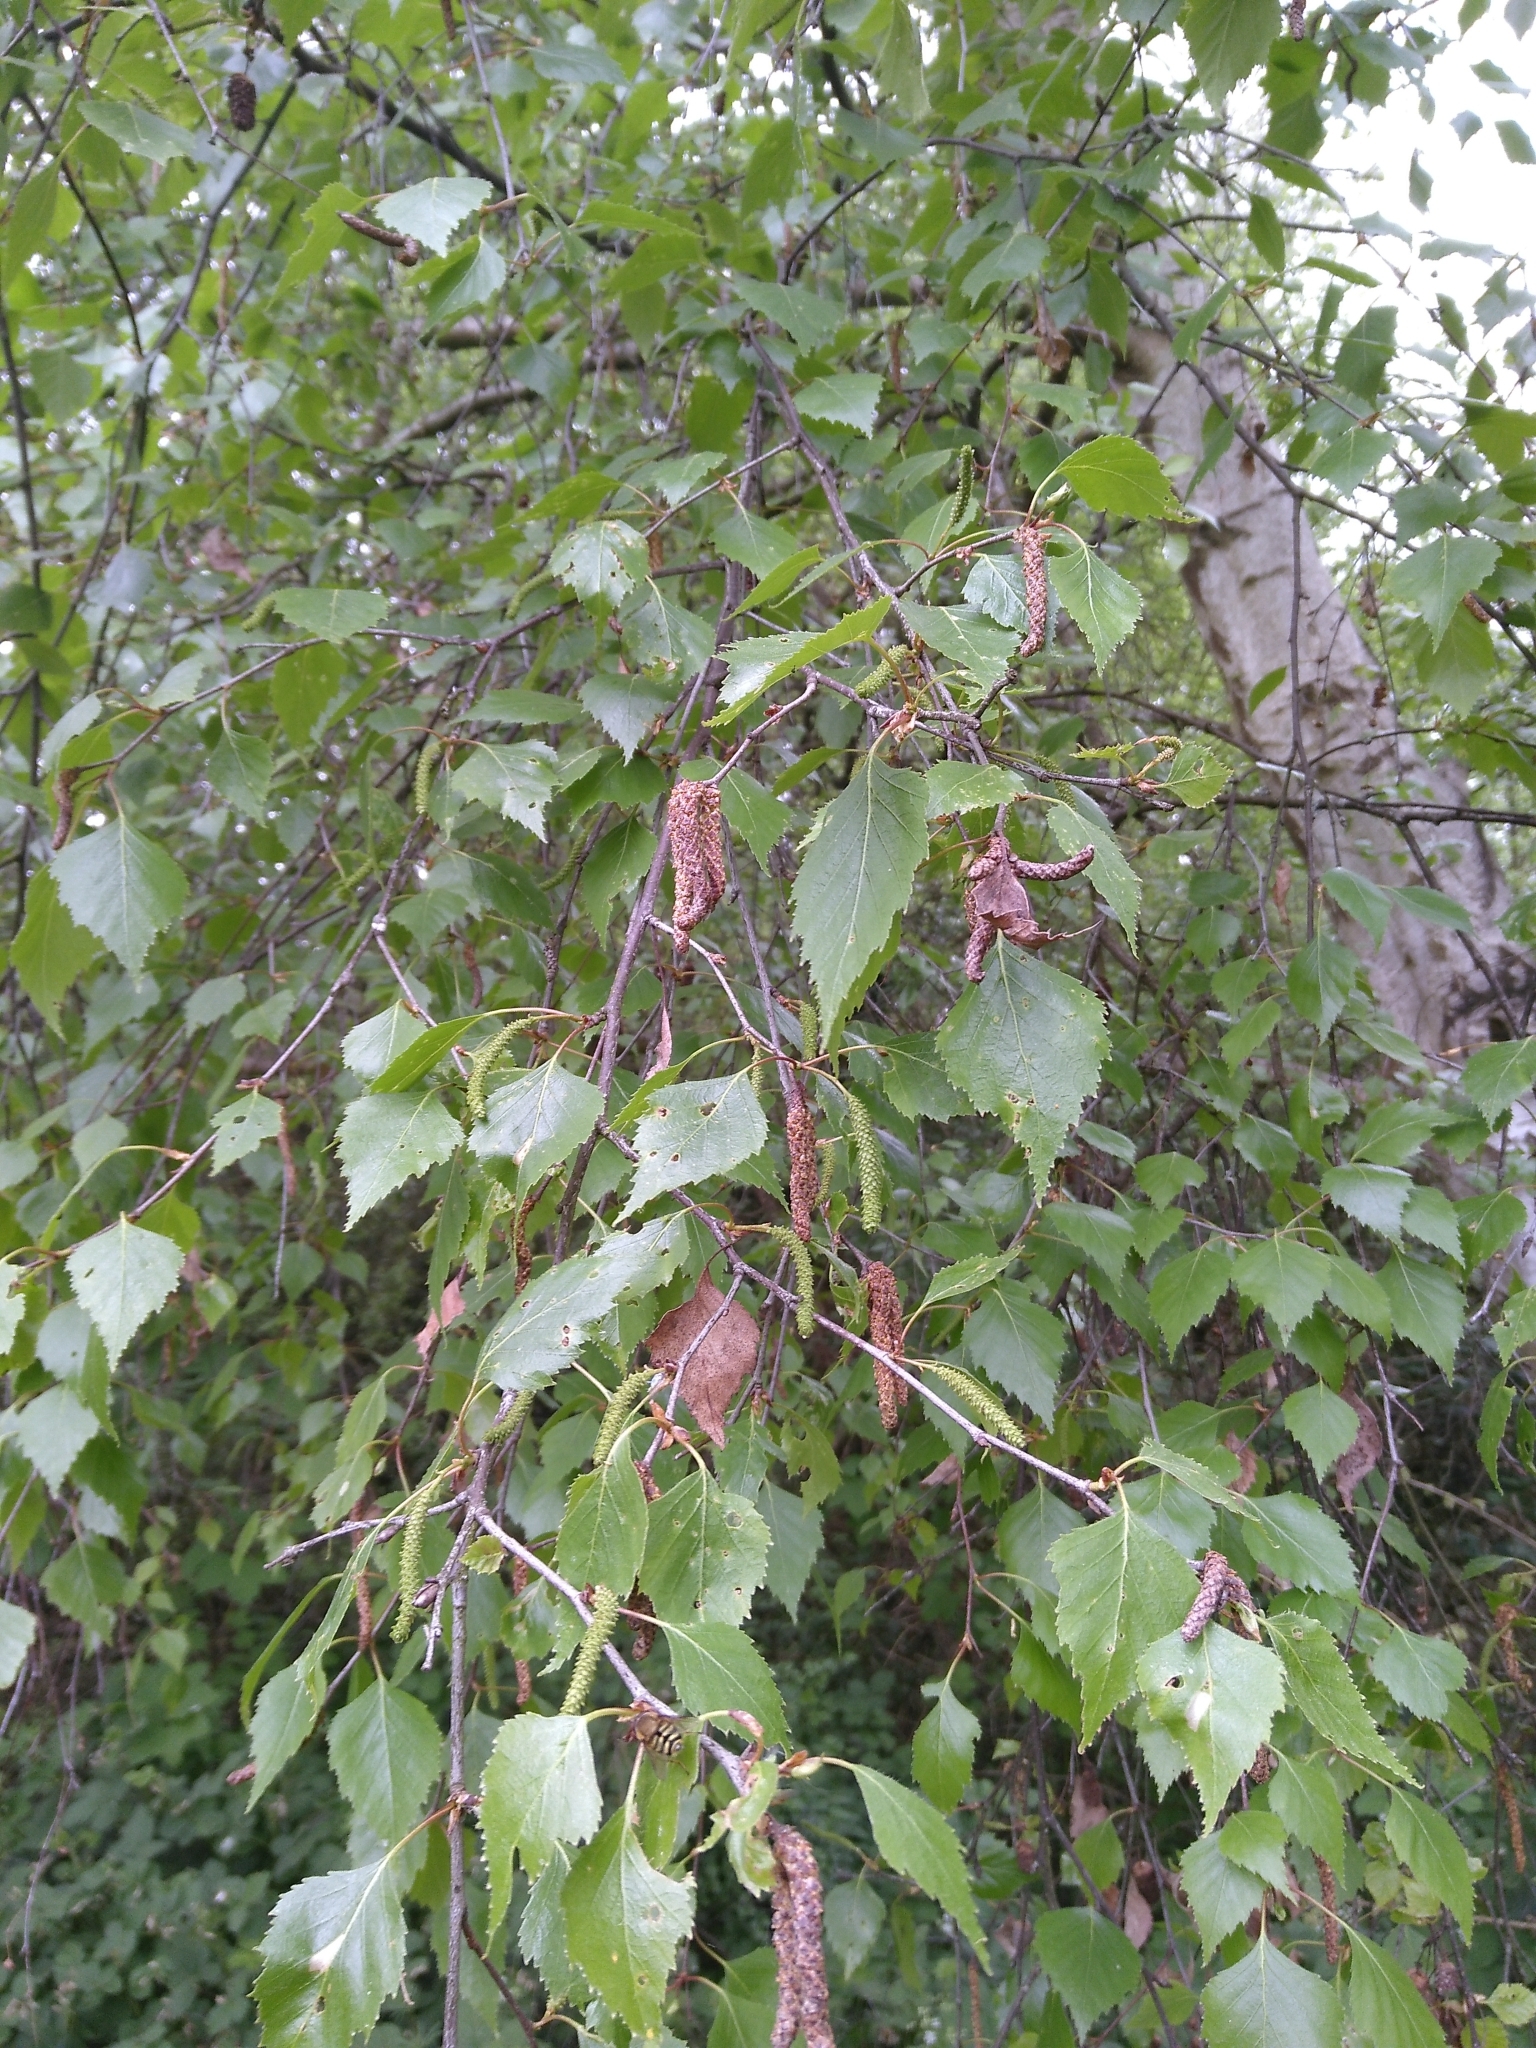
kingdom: Plantae
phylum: Tracheophyta
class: Magnoliopsida
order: Fagales
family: Betulaceae
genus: Betula
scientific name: Betula pendula
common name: Silver birch
